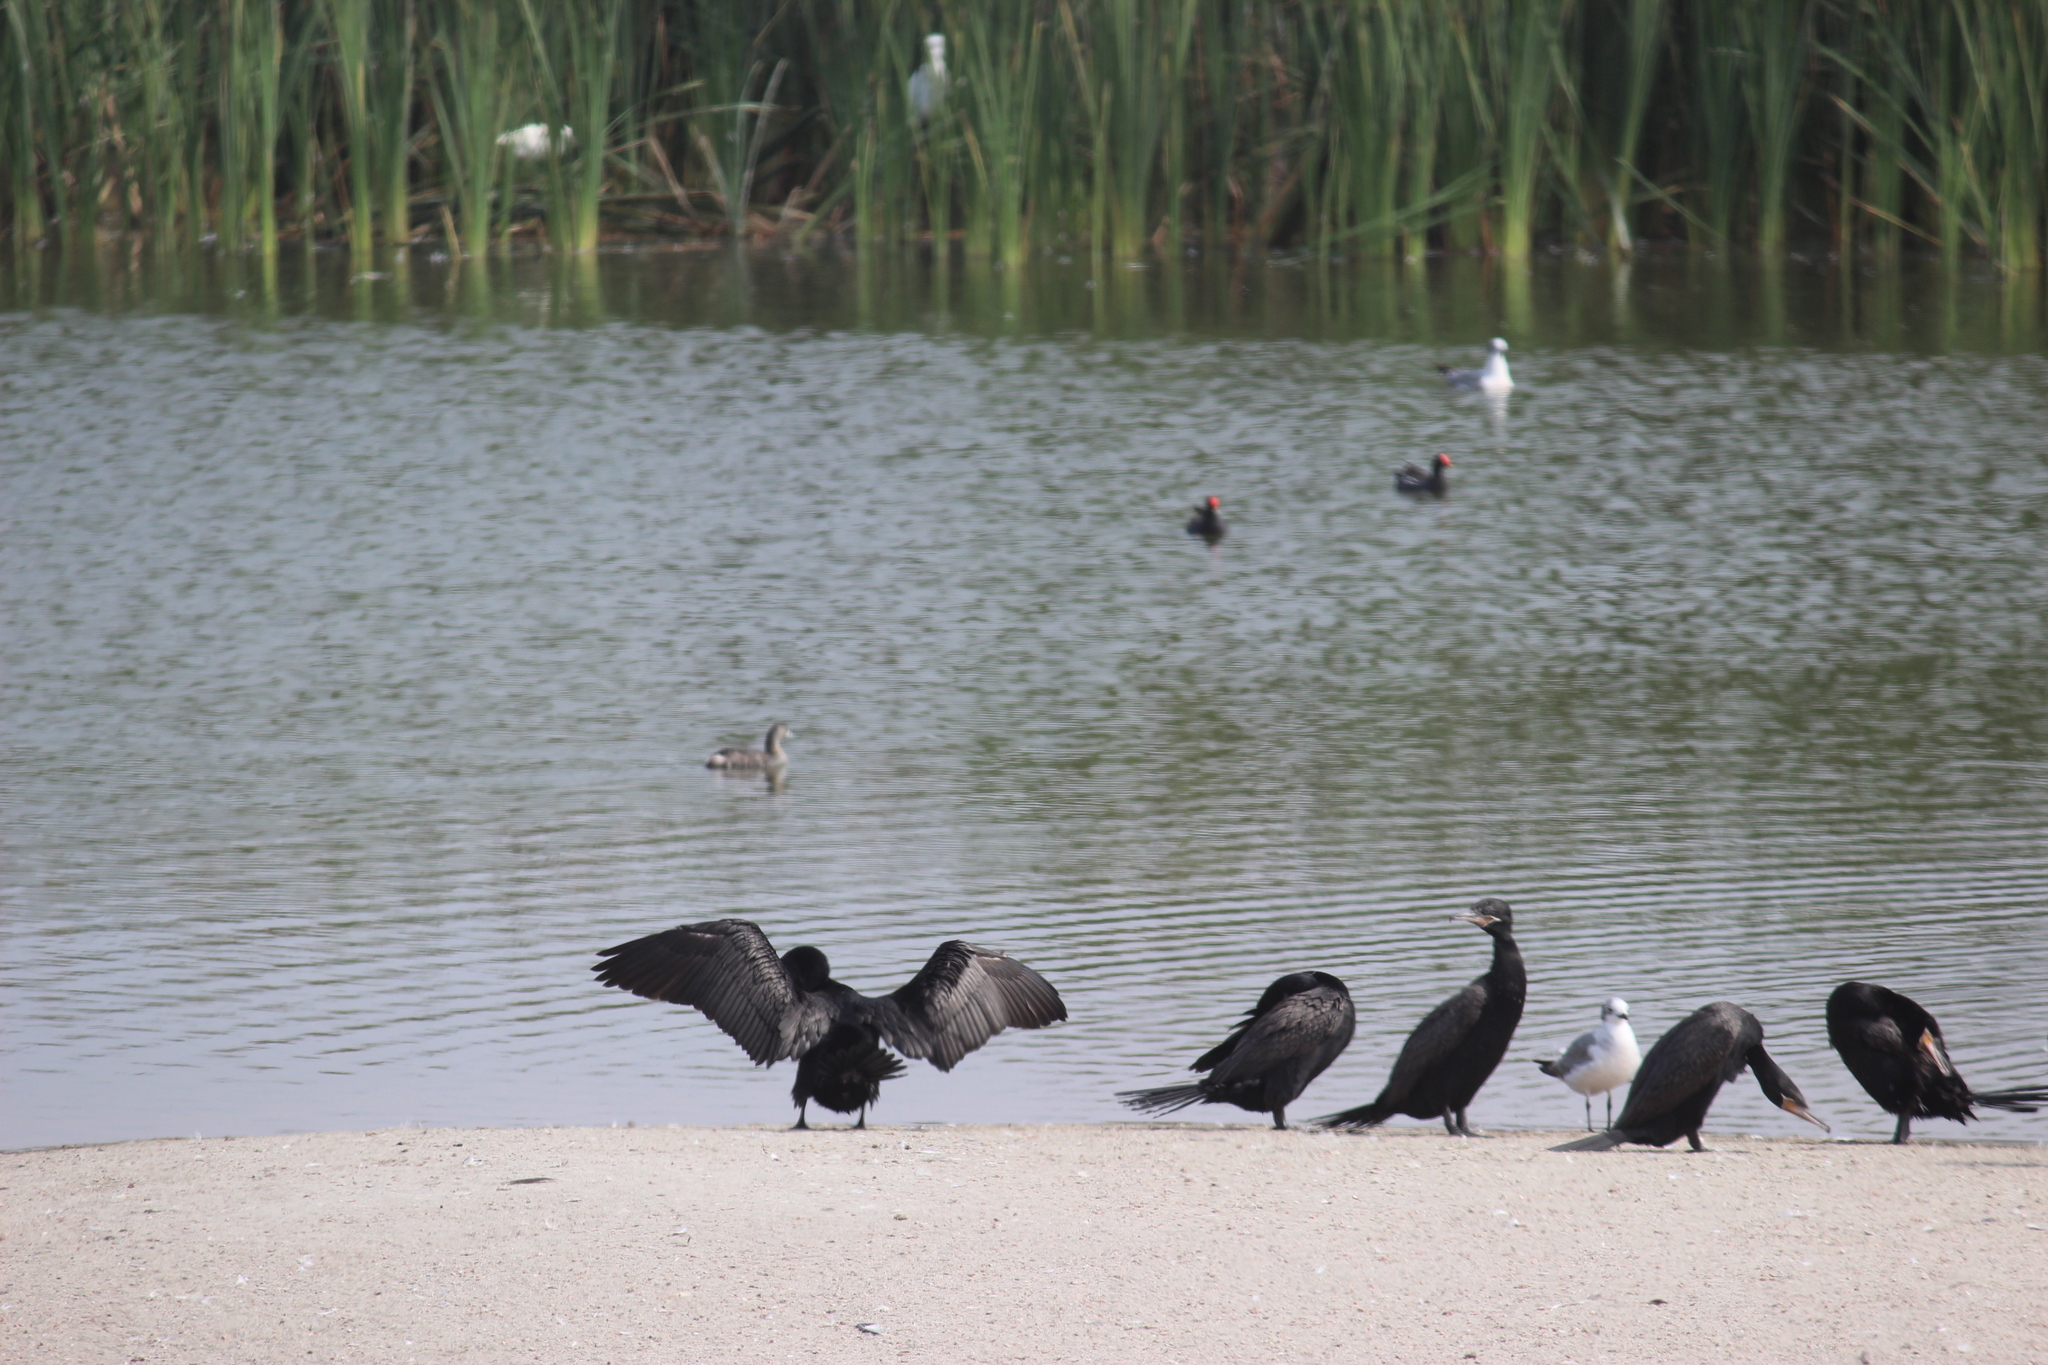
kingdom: Animalia
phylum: Chordata
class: Aves
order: Suliformes
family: Phalacrocoracidae
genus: Phalacrocorax
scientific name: Phalacrocorax brasilianus
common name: Neotropic cormorant
